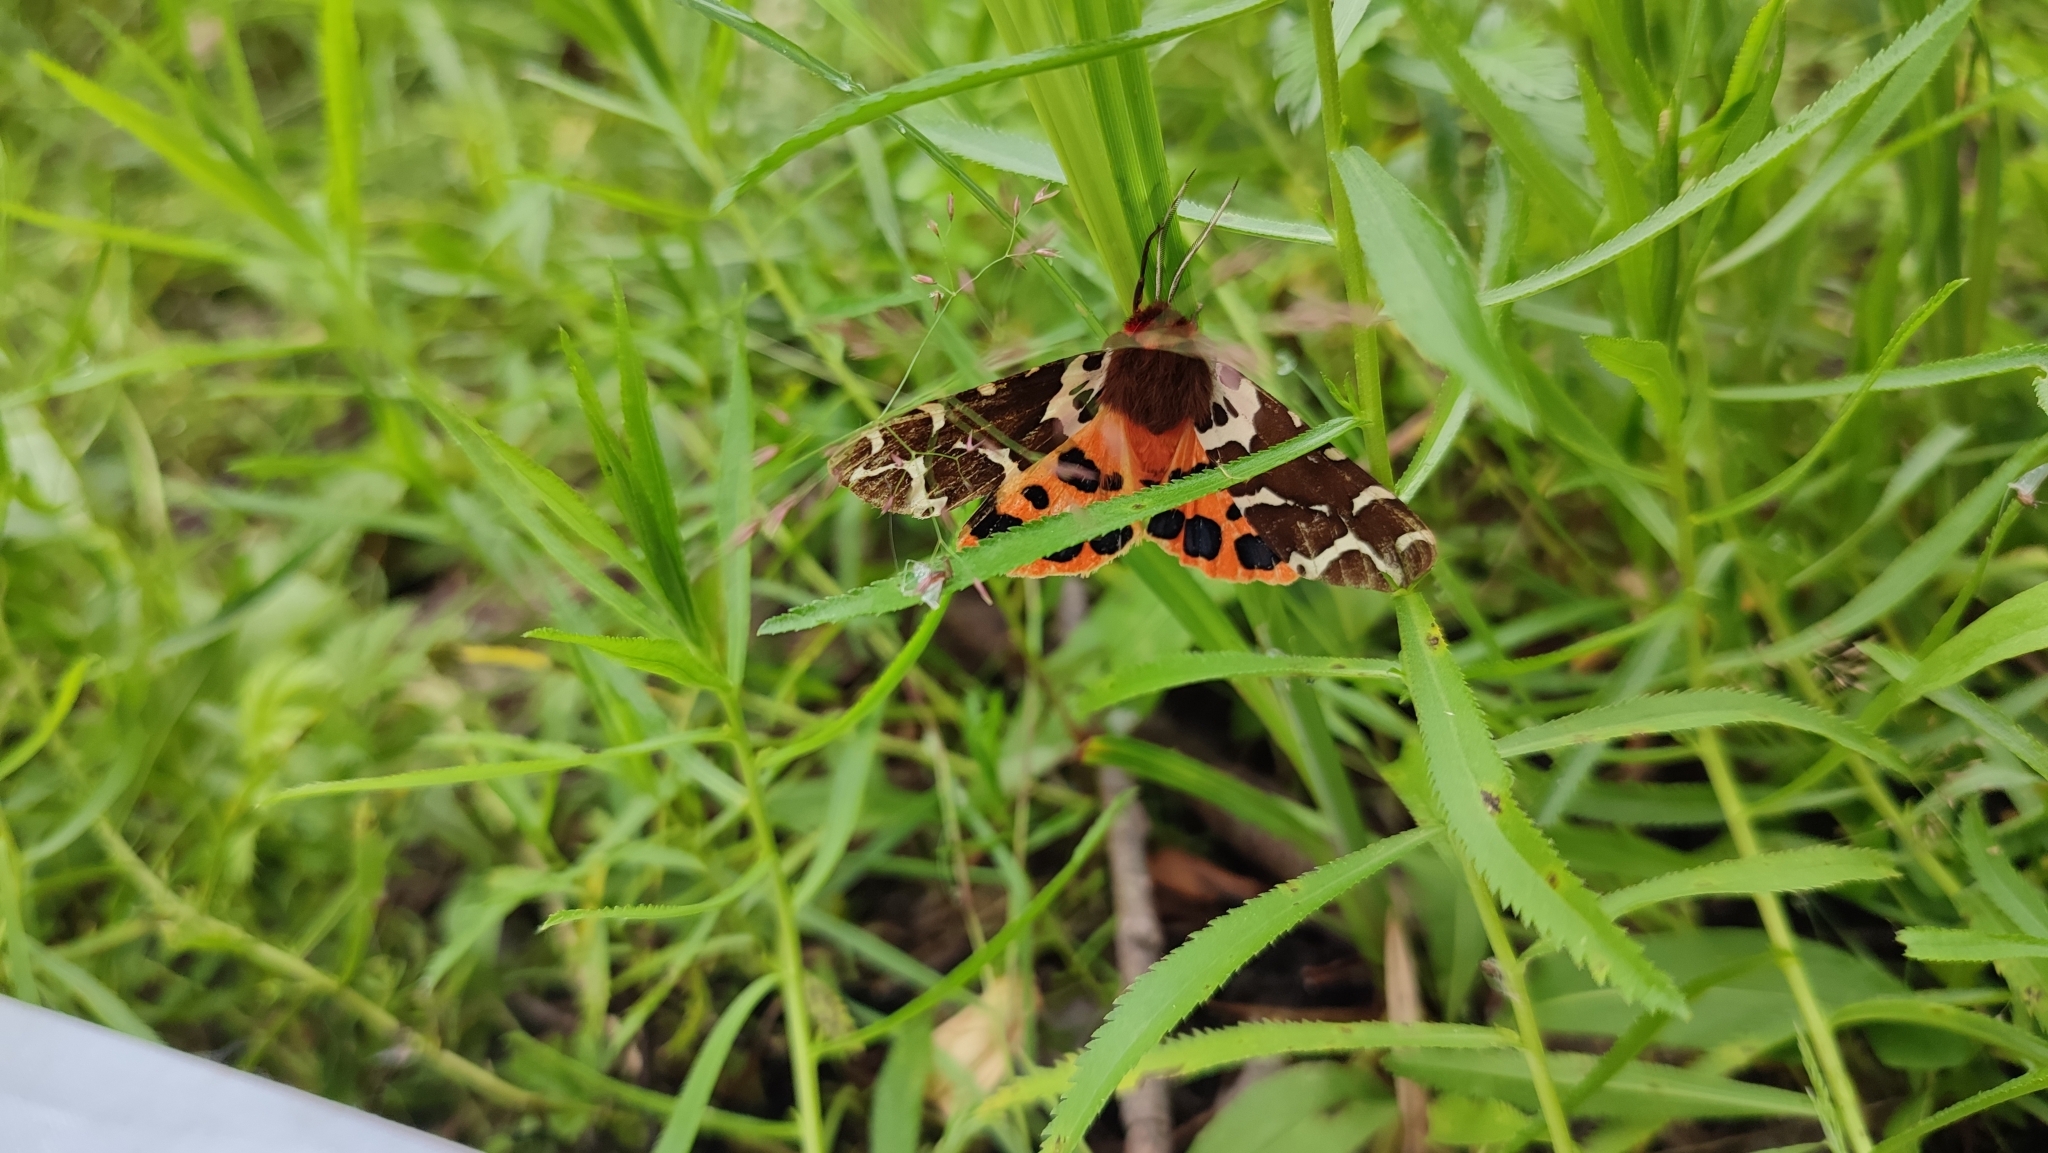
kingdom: Animalia
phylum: Arthropoda
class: Insecta
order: Lepidoptera
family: Erebidae
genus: Arctia
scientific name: Arctia caja
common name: Garden tiger
